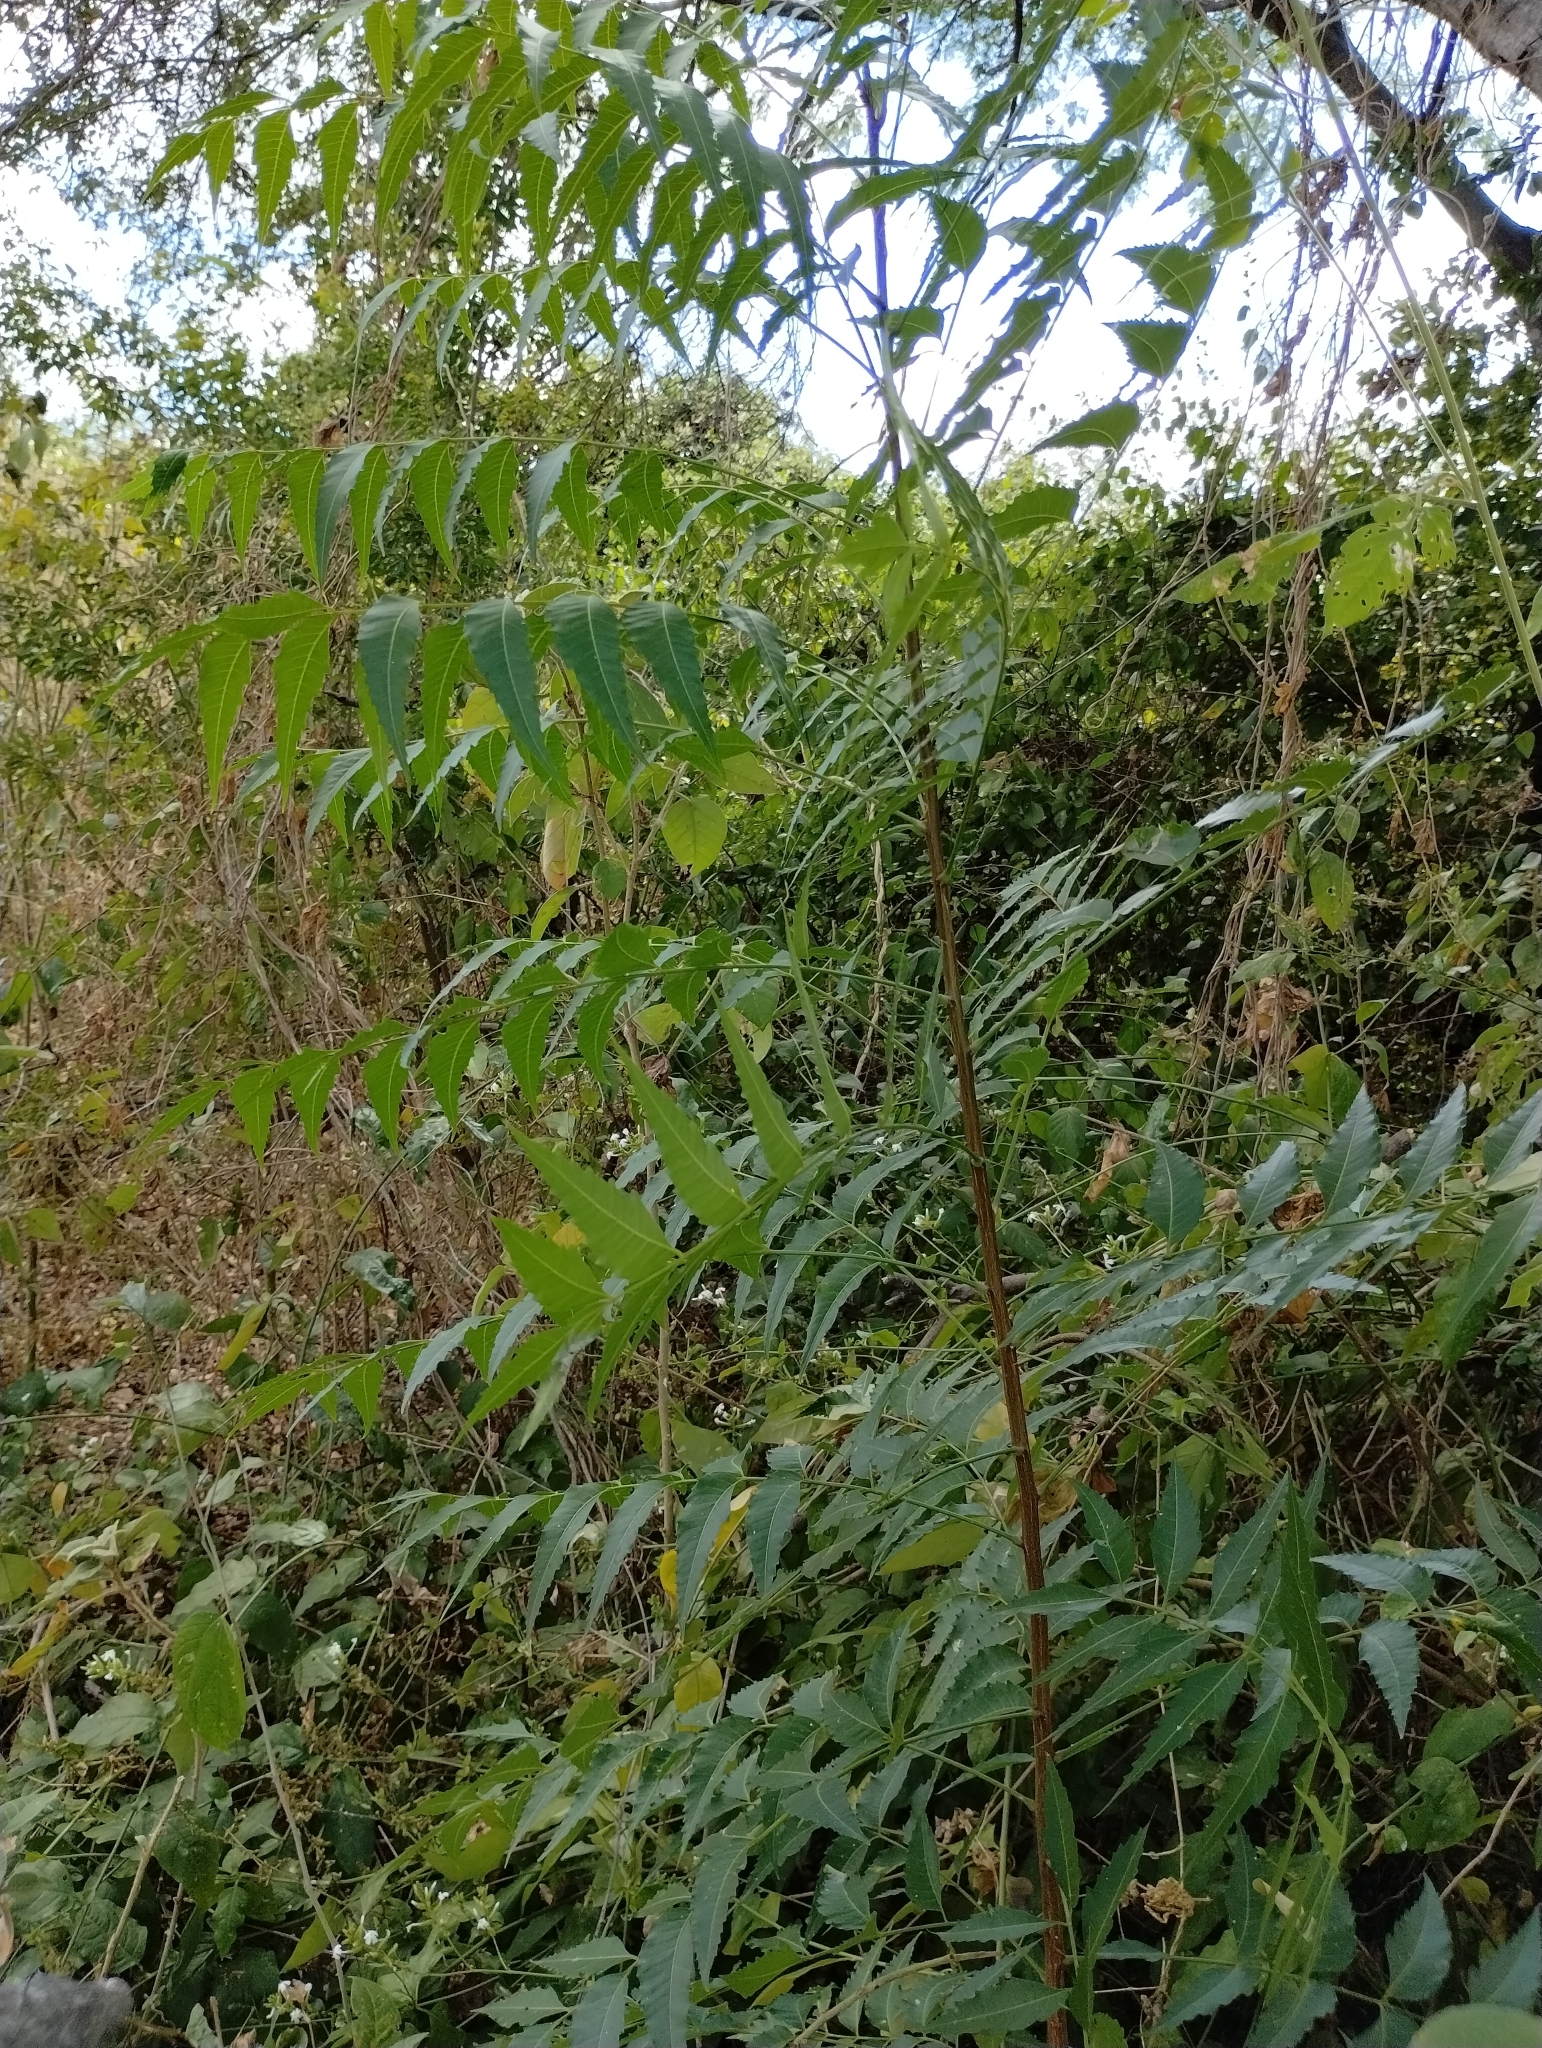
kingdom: Plantae
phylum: Tracheophyta
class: Magnoliopsida
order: Sapindales
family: Meliaceae
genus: Azadirachta
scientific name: Azadirachta indica
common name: Neem
